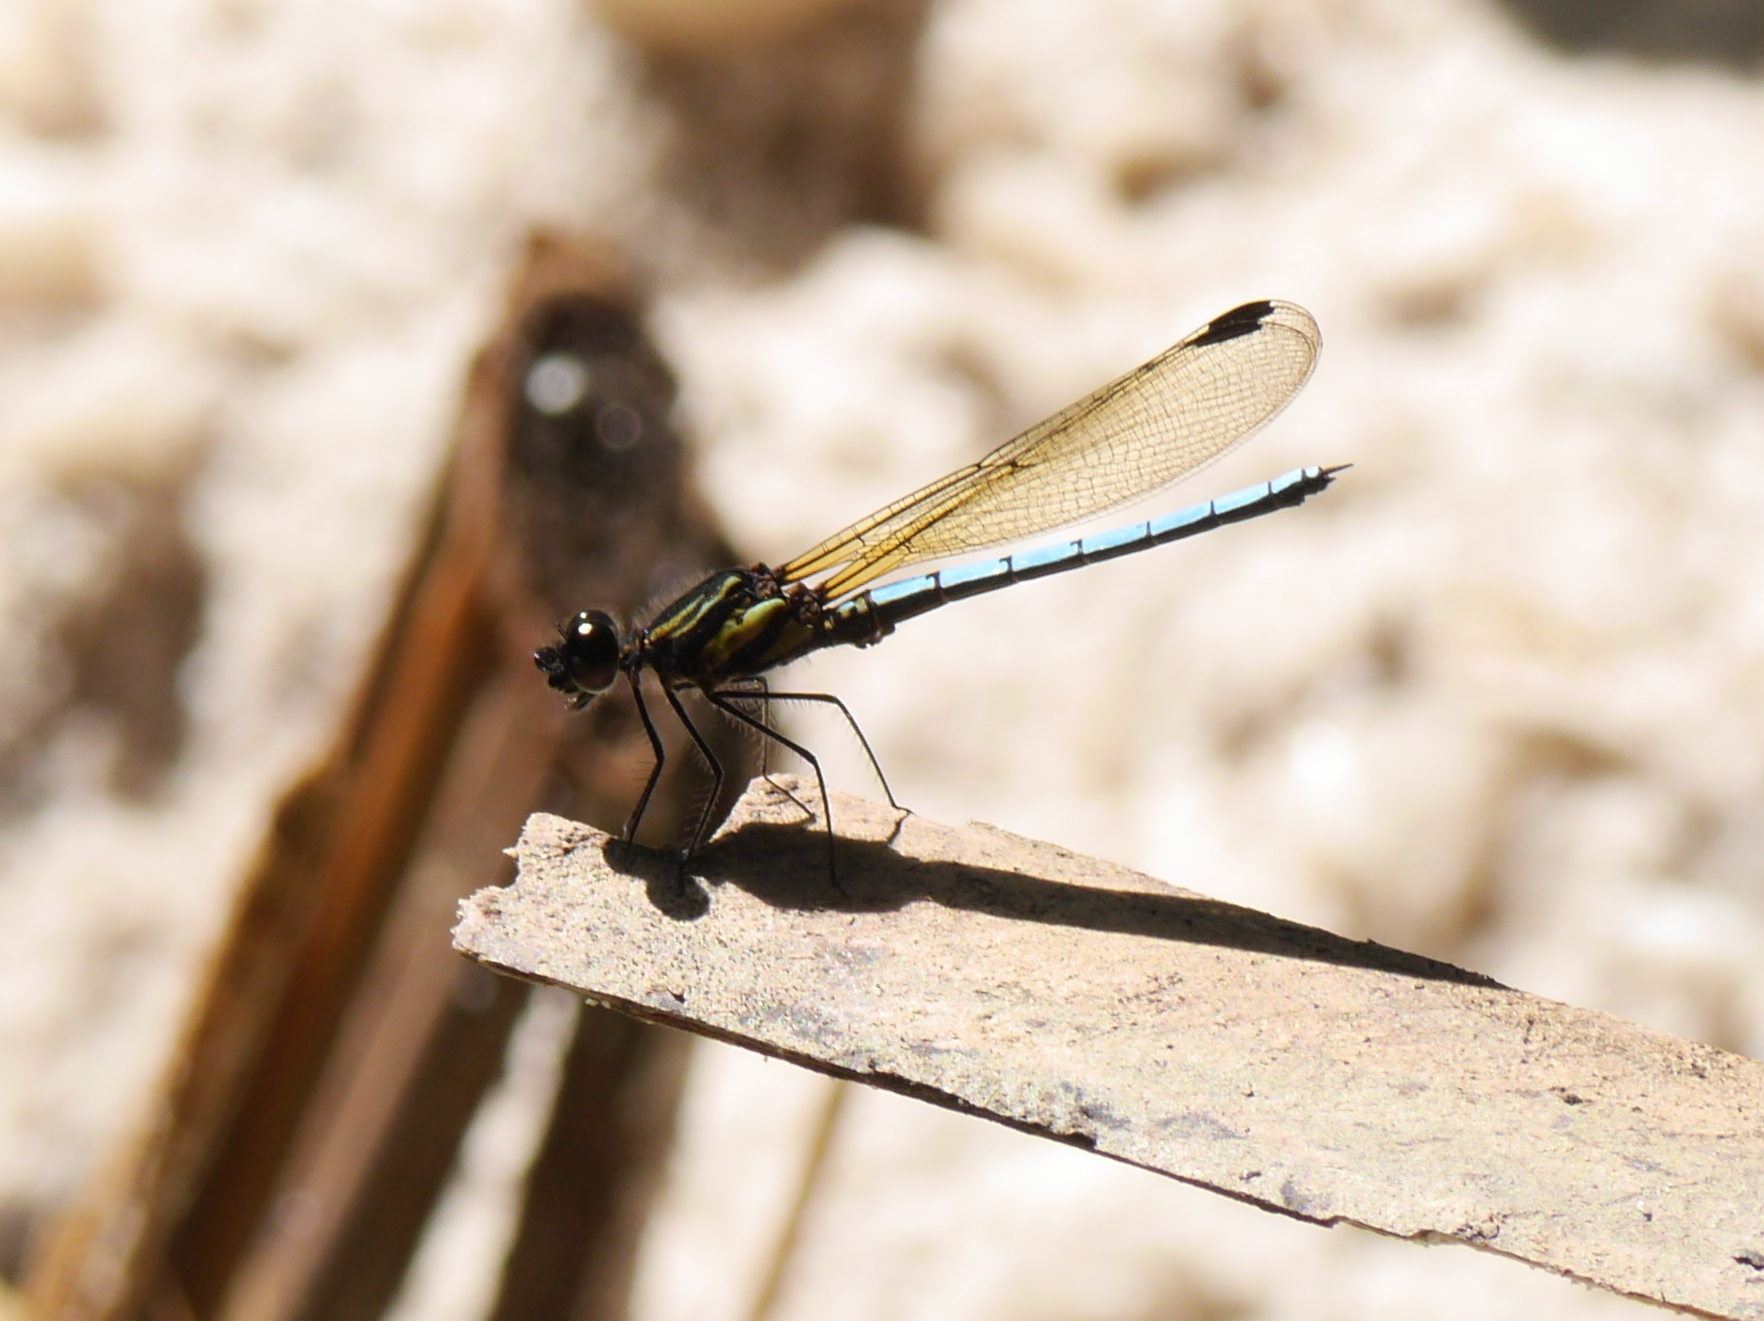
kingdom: Animalia
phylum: Arthropoda
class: Insecta
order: Odonata
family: Chlorocyphidae
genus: Chlorocypha
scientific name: Chlorocypha aphrodite
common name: Blue jewel
